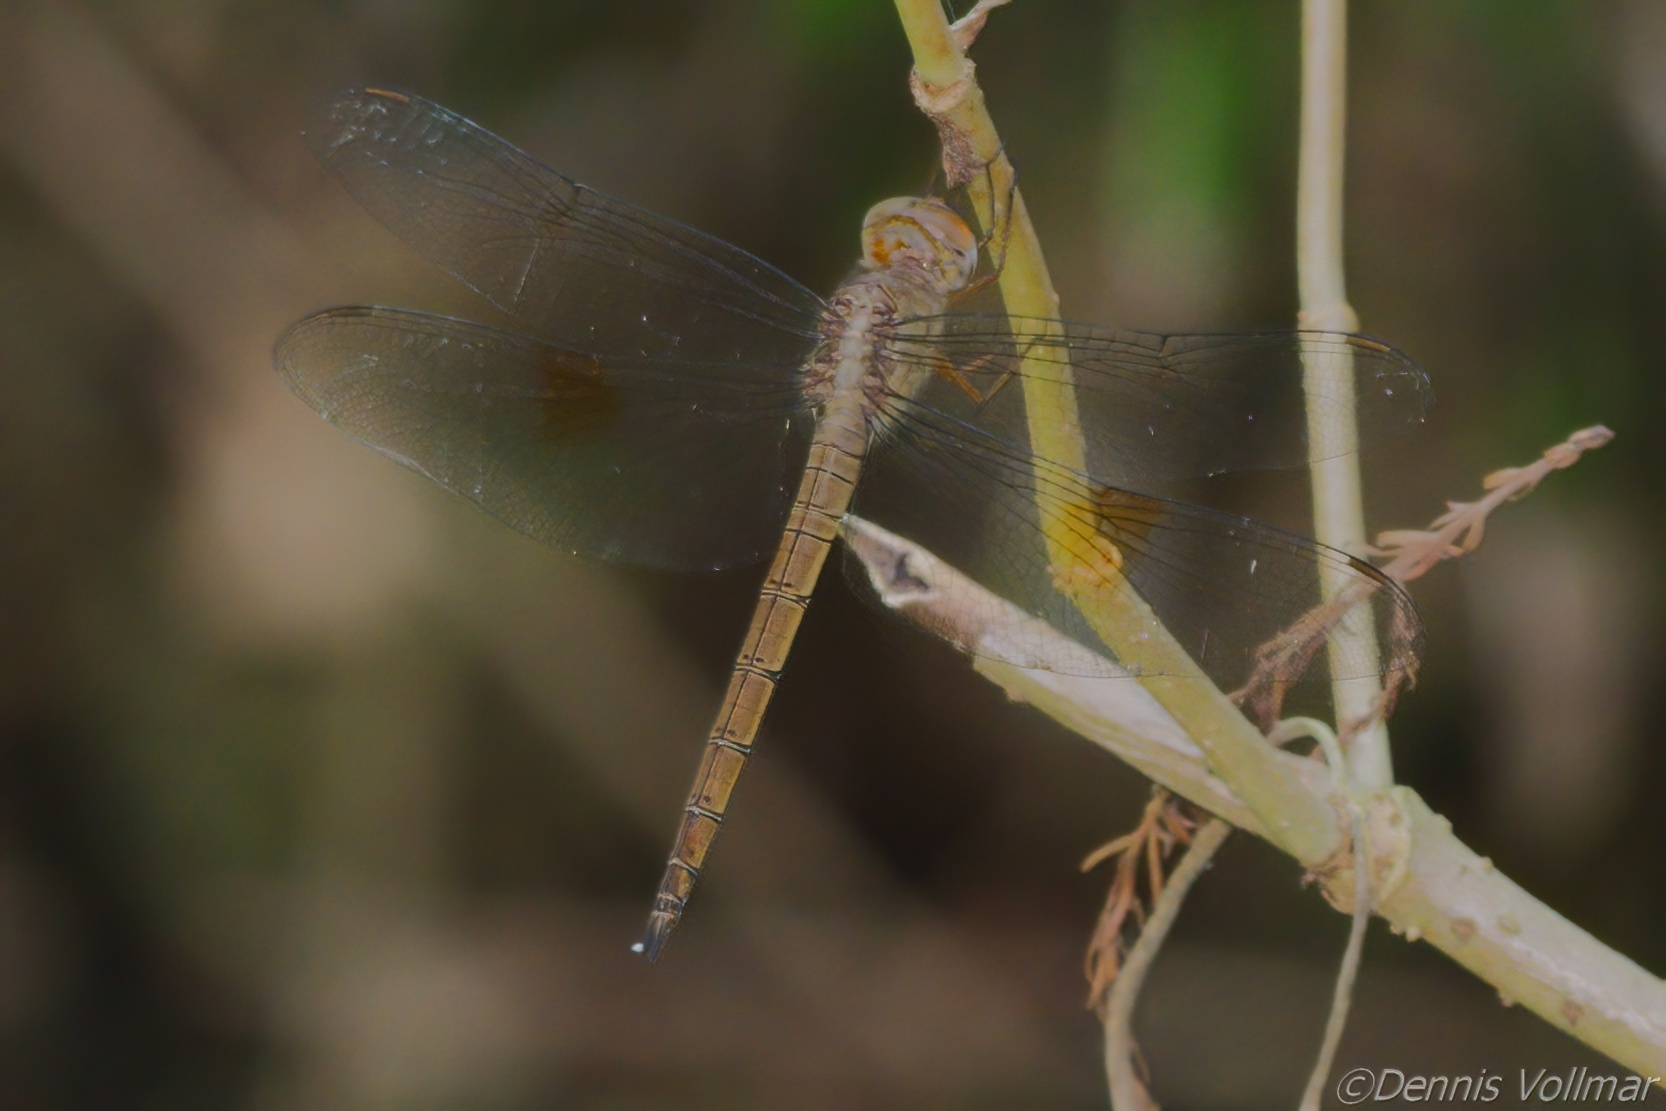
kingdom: Animalia
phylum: Arthropoda
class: Insecta
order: Odonata
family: Libellulidae
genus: Tholymis
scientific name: Tholymis citrina
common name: Evening skimmer
